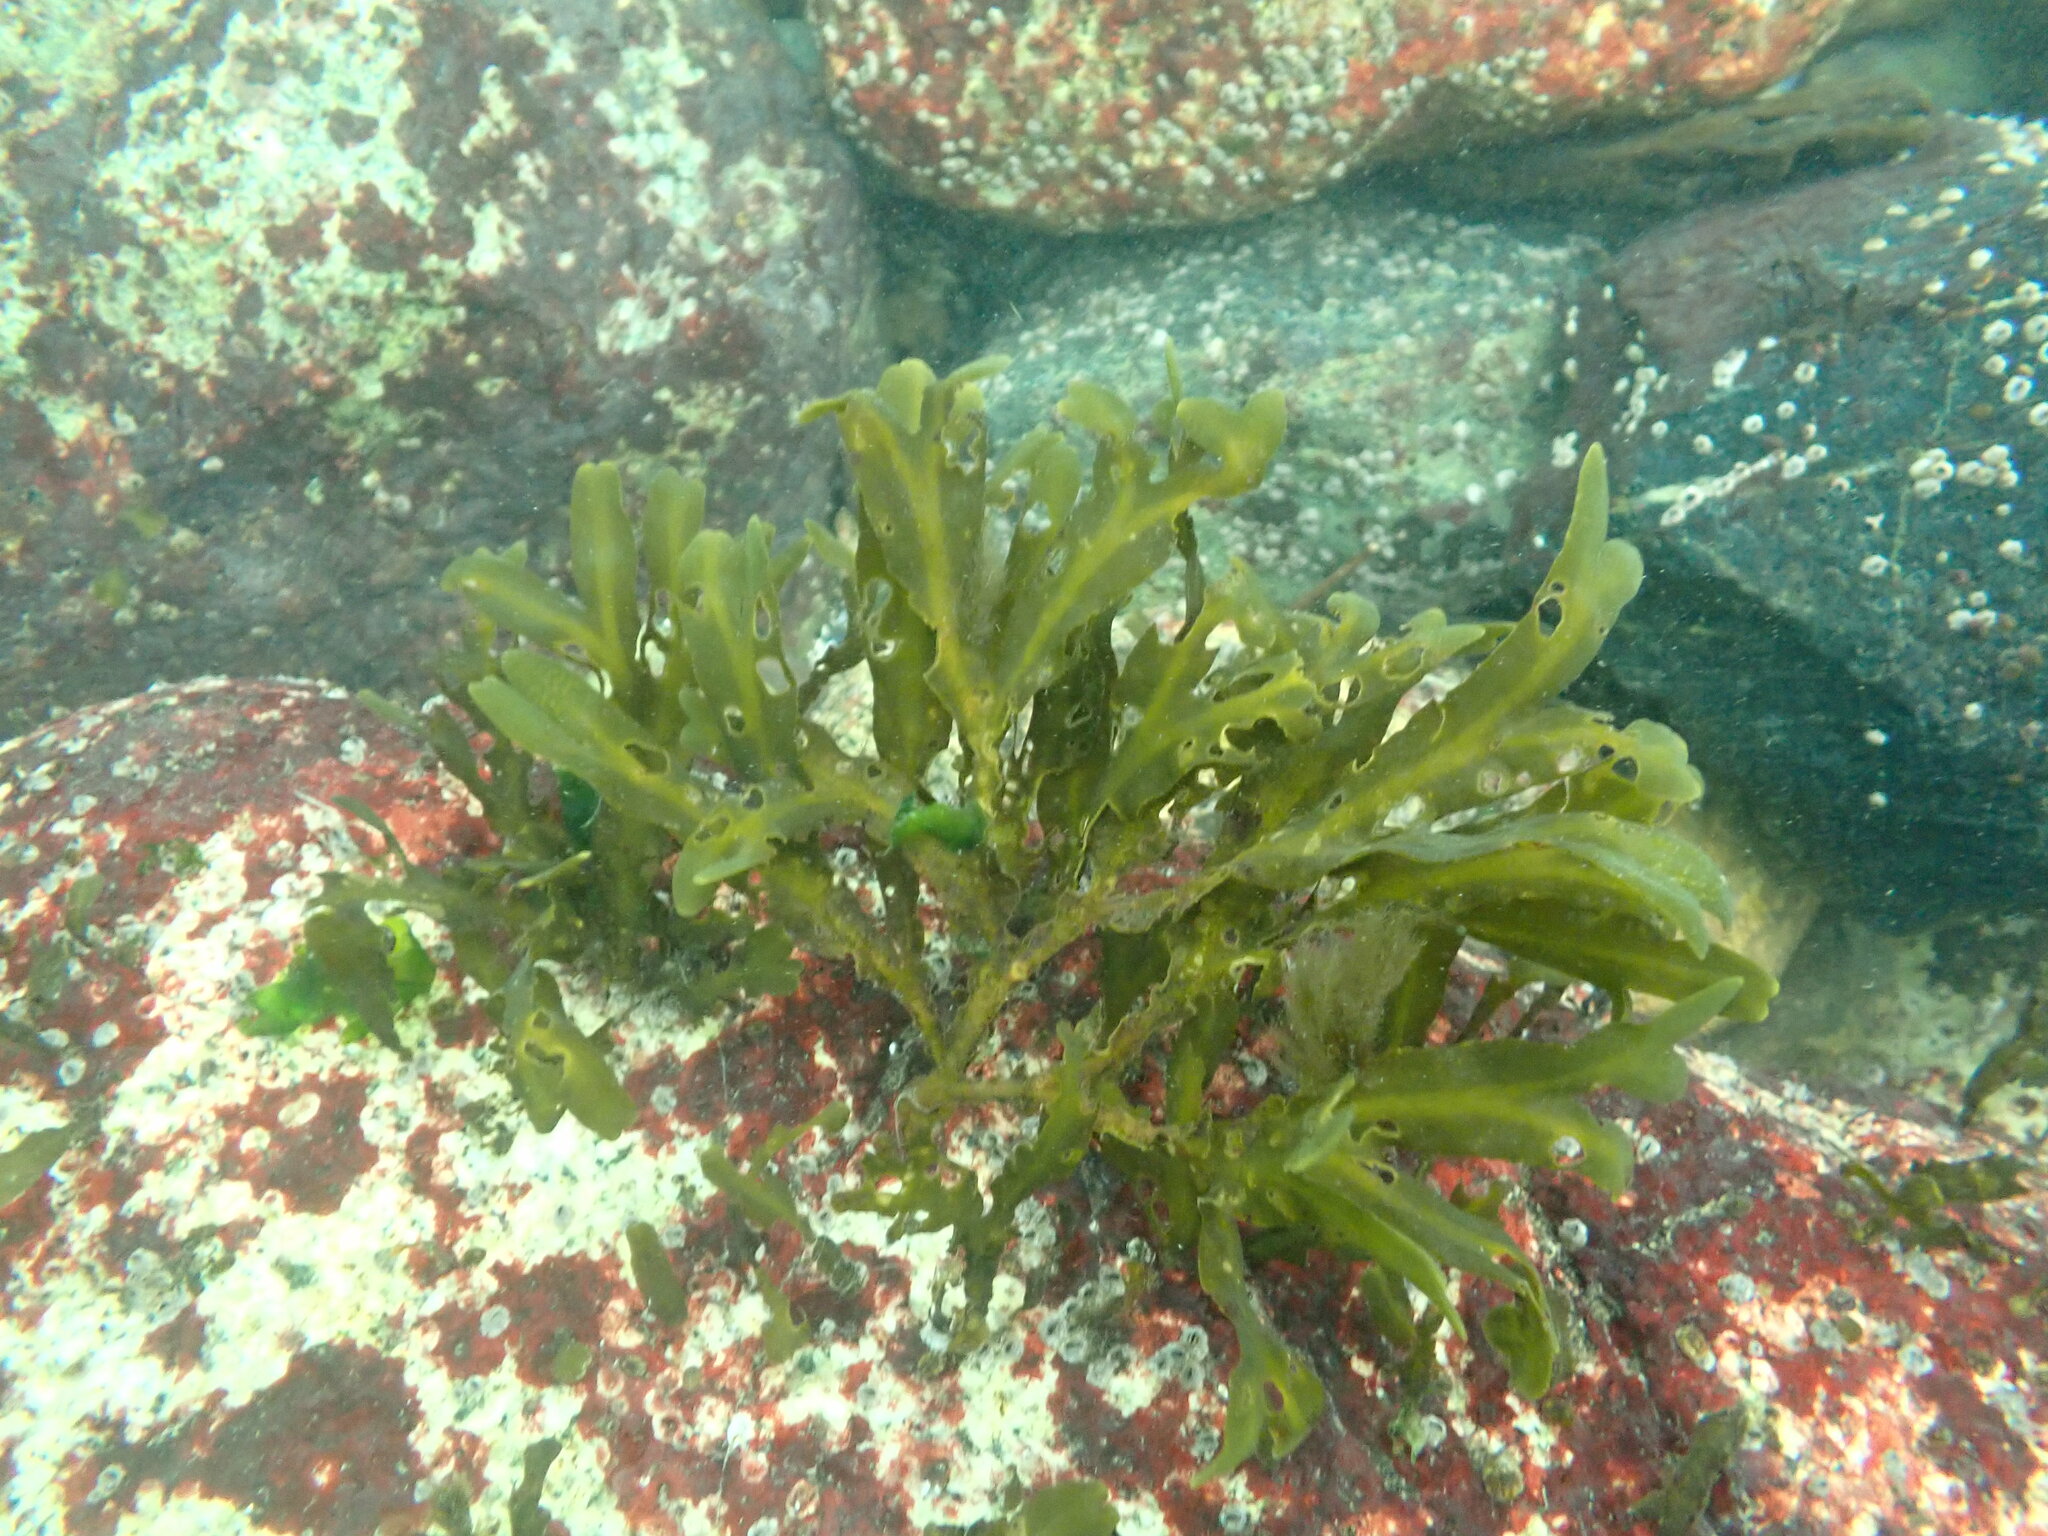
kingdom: Chromista
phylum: Ochrophyta
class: Phaeophyceae
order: Fucales
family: Fucaceae
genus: Fucus
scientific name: Fucus distichus
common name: Rockweed
